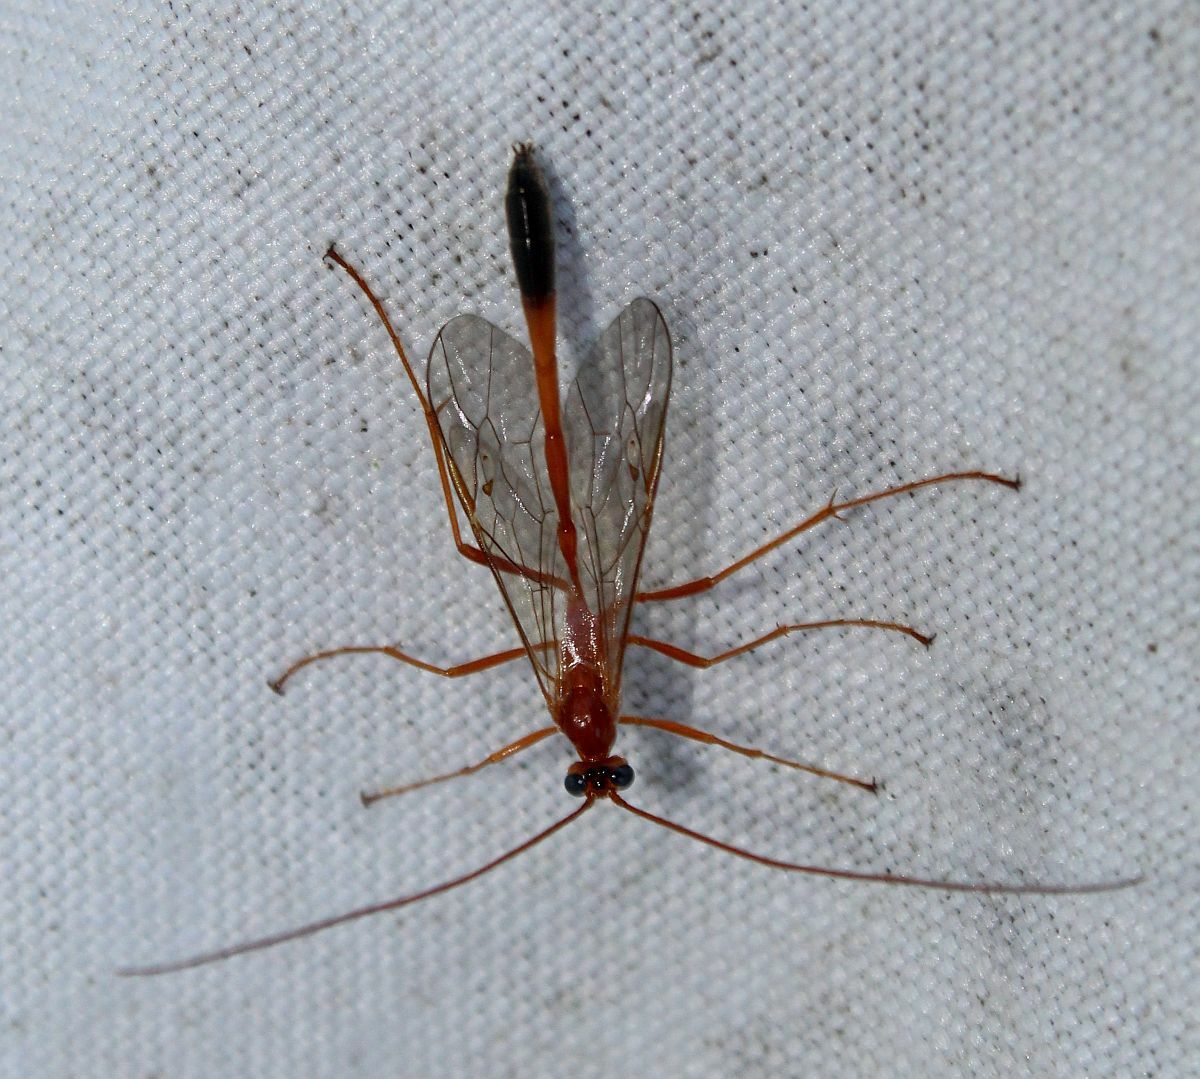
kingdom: Animalia
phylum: Arthropoda
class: Insecta
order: Hymenoptera
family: Ichneumonidae
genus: Enicospilus
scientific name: Enicospilus ramidulus
